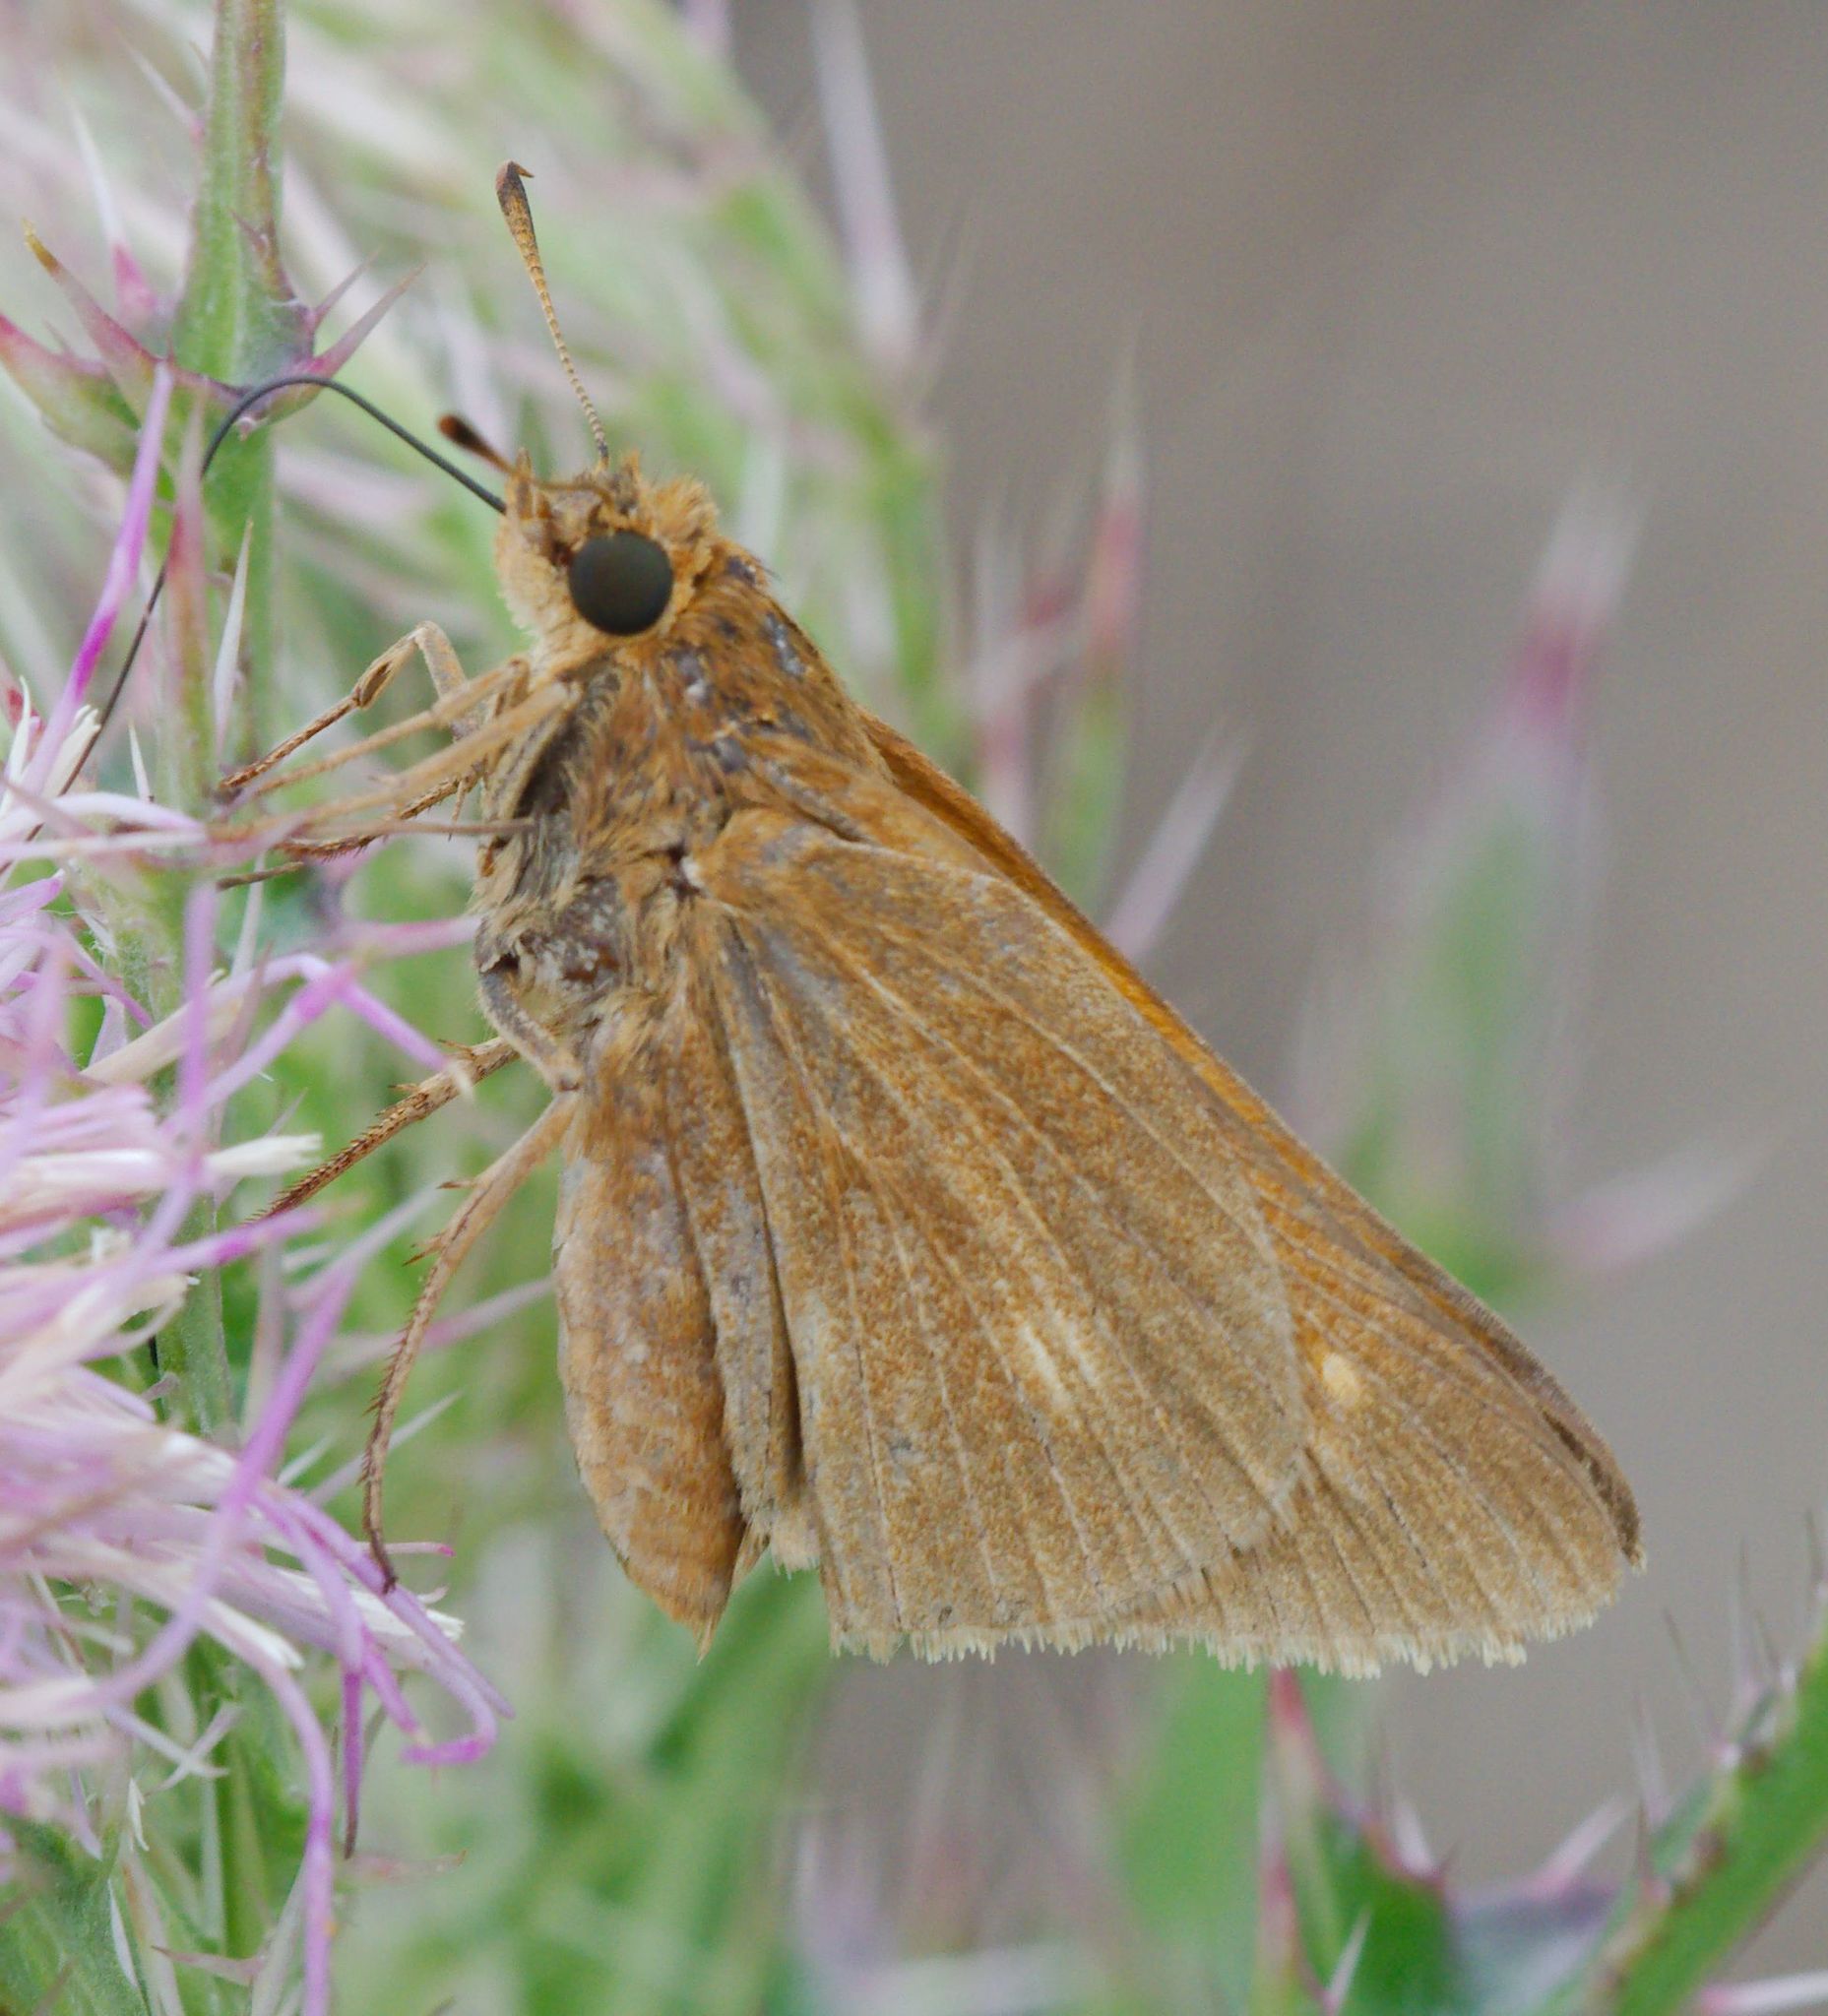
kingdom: Animalia
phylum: Arthropoda
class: Insecta
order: Lepidoptera
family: Hesperiidae
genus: Euphyes
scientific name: Euphyes pilatka
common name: Palatka skipper
